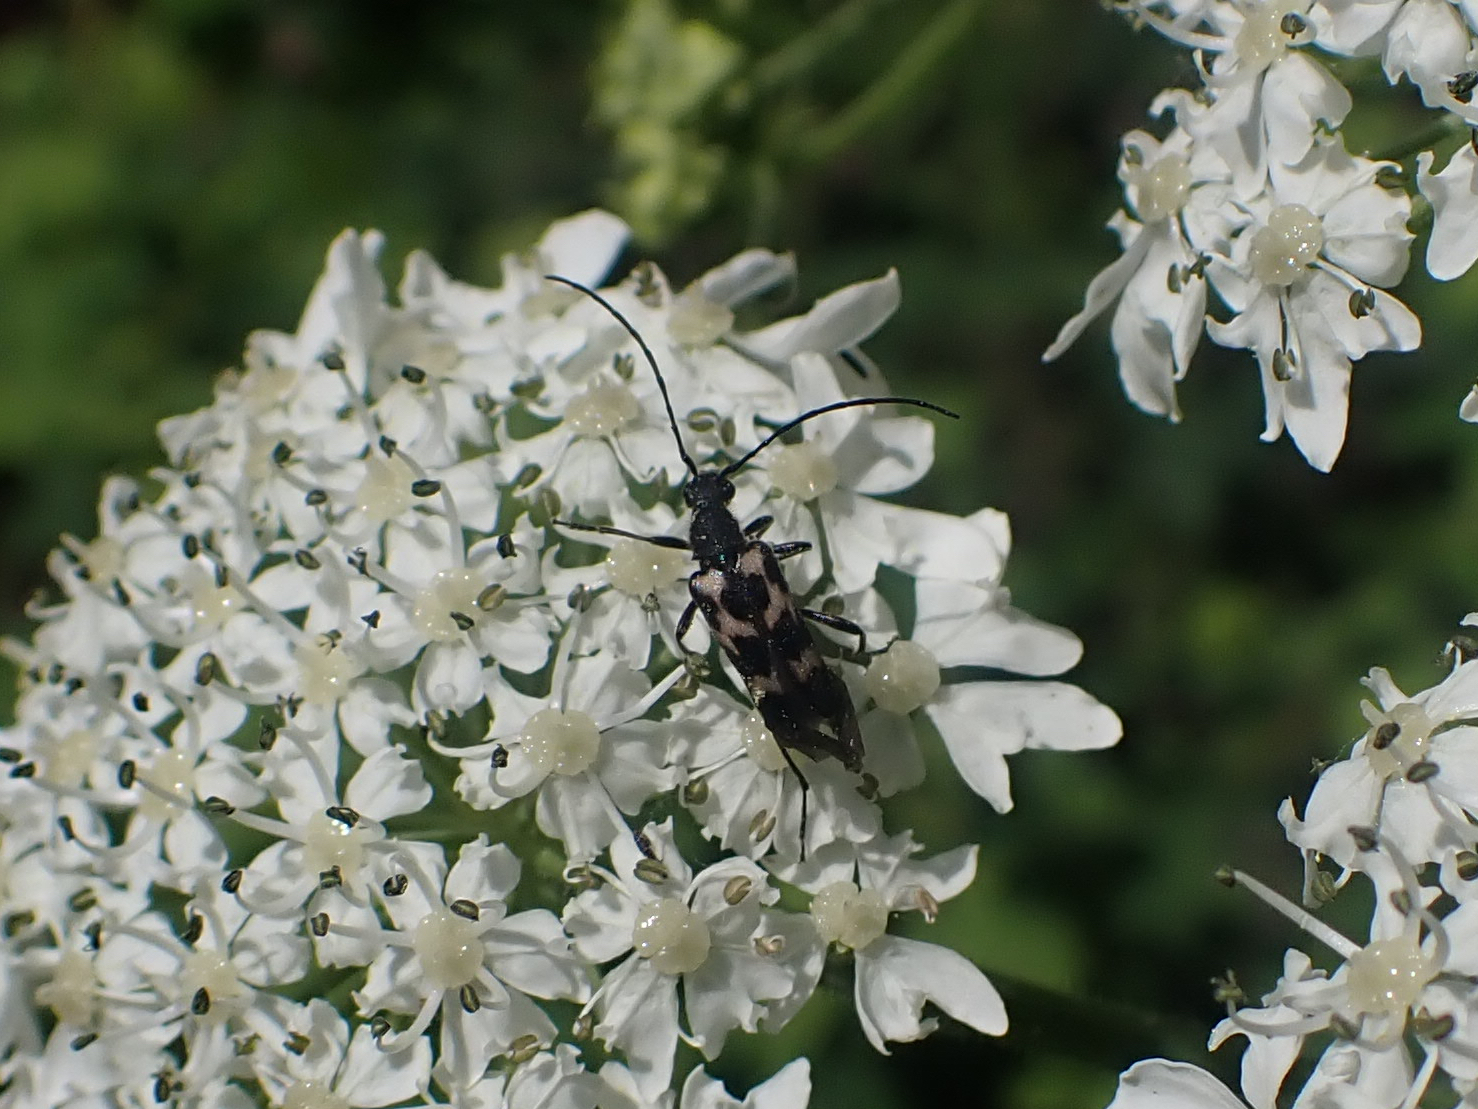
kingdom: Animalia
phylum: Arthropoda
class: Insecta
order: Coleoptera
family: Cerambycidae
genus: Judolia
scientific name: Judolia montivagans
